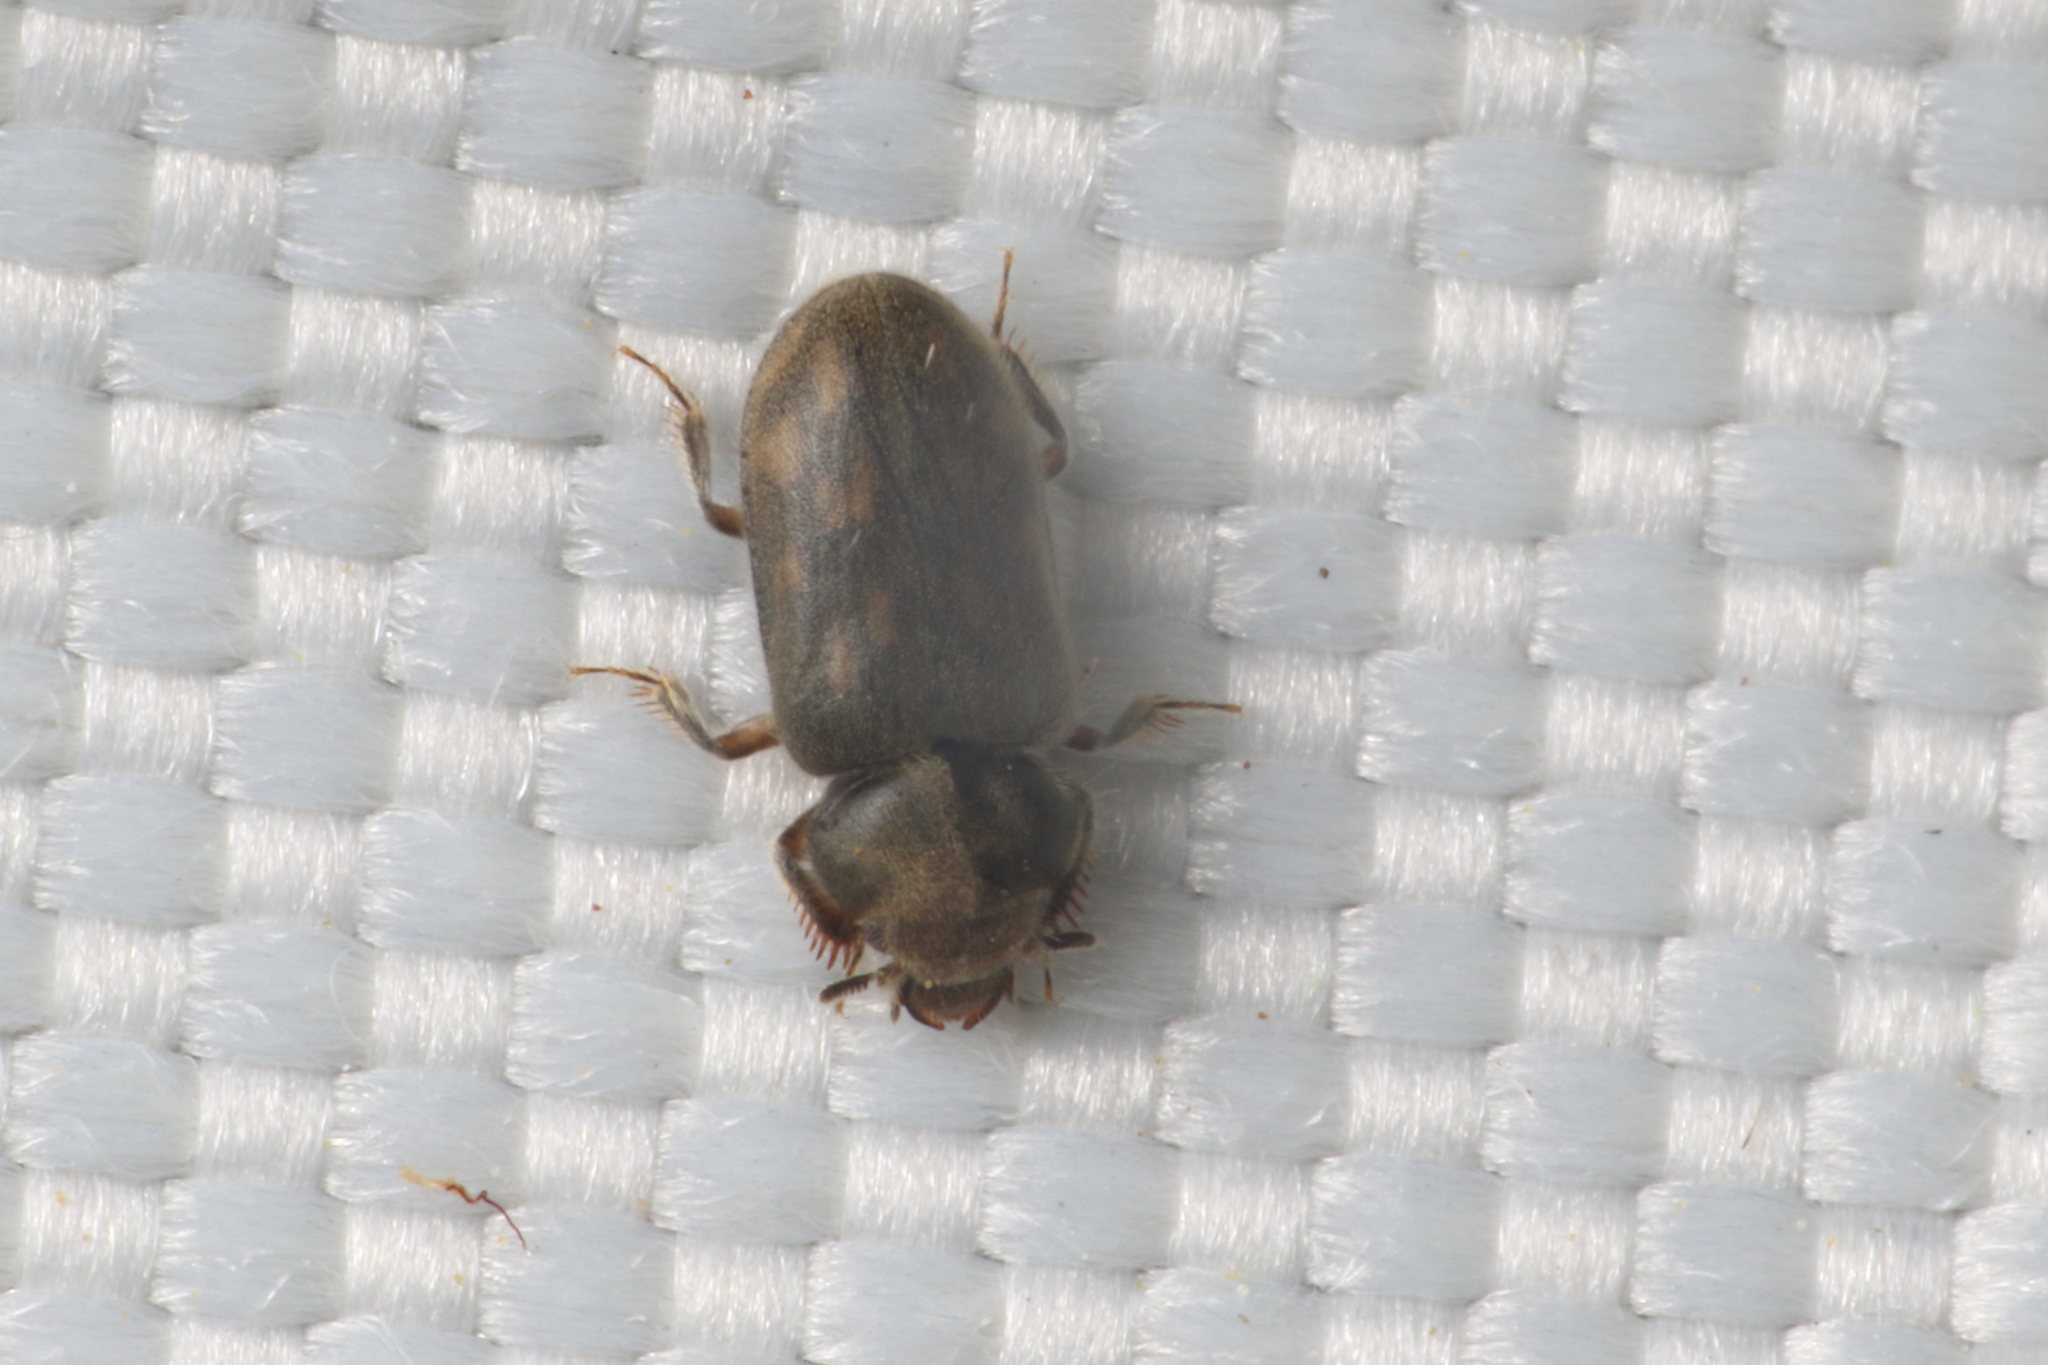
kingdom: Animalia
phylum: Arthropoda
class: Insecta
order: Coleoptera
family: Heteroceridae
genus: Heterocerus
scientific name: Heterocerus novaeselandiae
